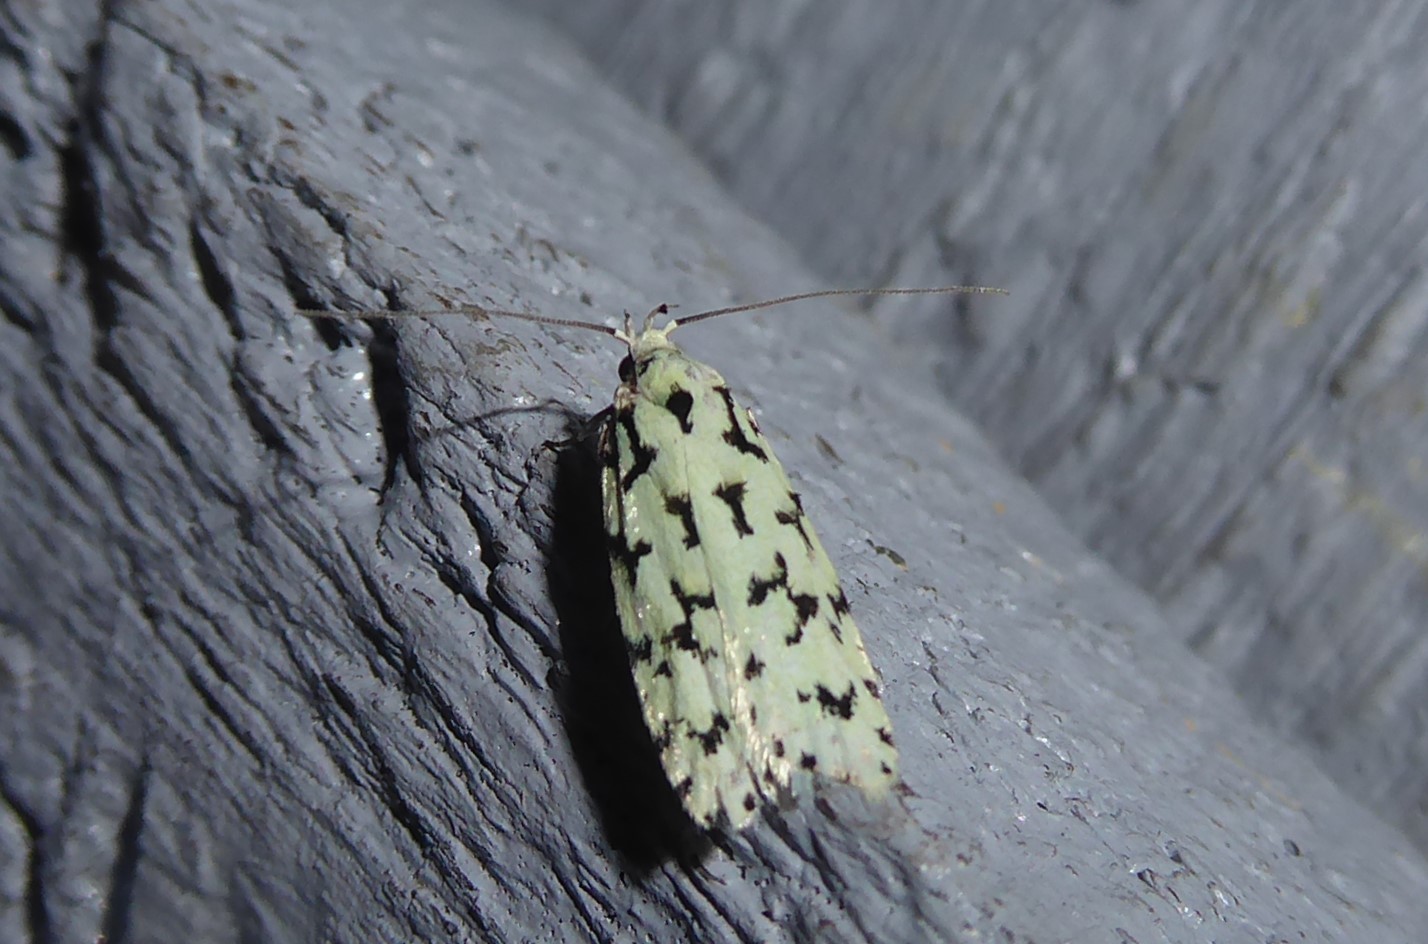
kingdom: Animalia
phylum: Arthropoda
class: Insecta
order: Lepidoptera
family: Oecophoridae
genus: Izatha
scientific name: Izatha huttoni
